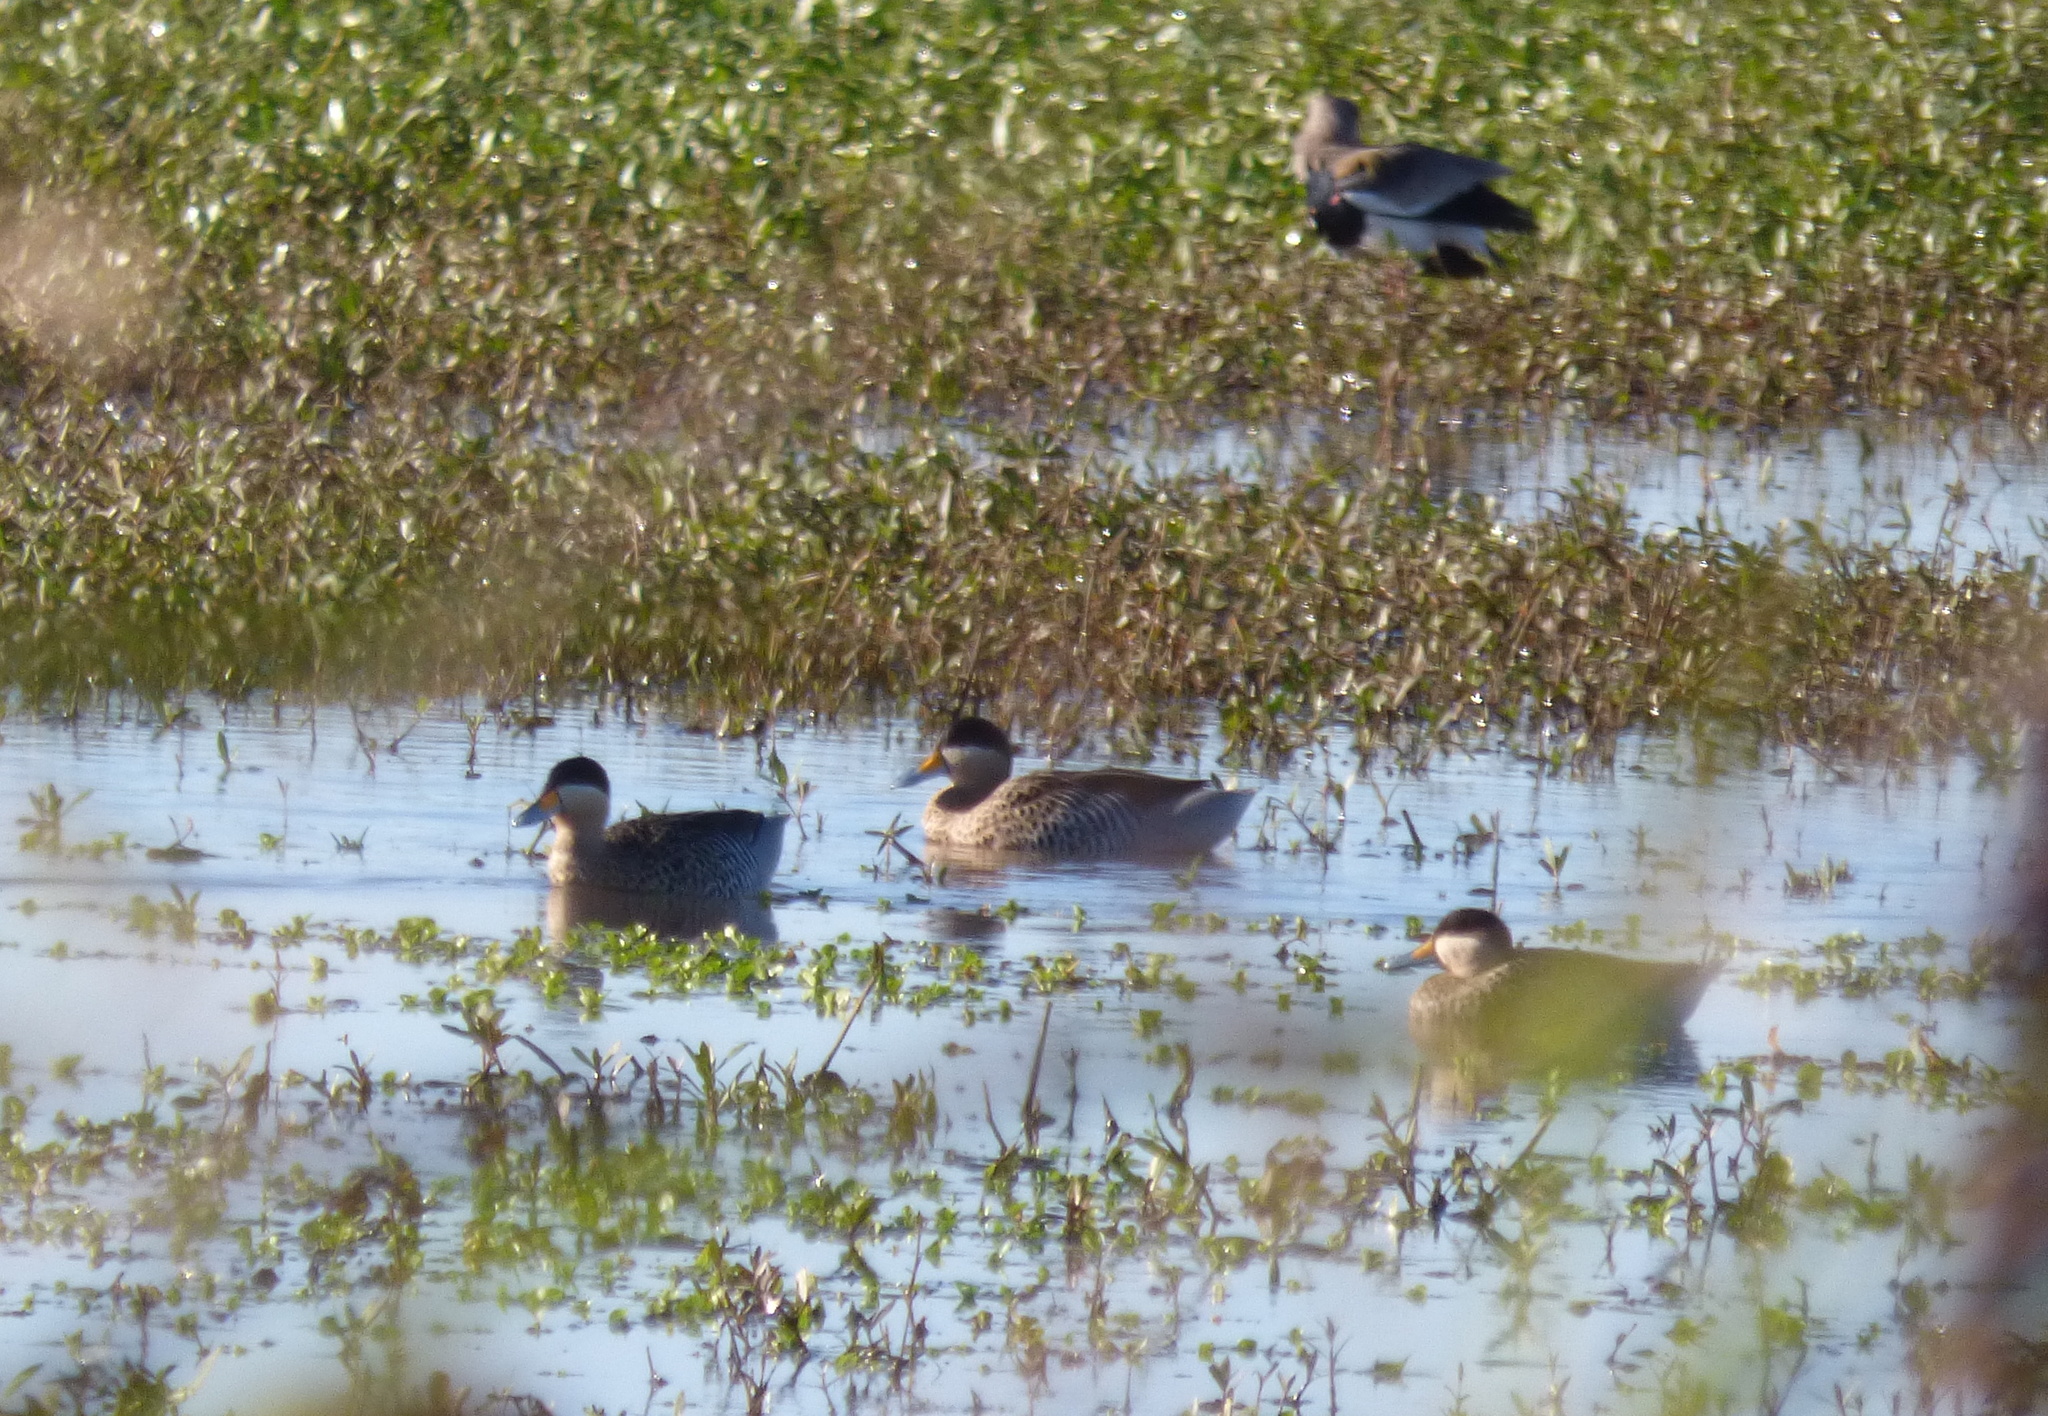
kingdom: Animalia
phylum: Chordata
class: Aves
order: Anseriformes
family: Anatidae
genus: Spatula
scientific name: Spatula versicolor
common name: Silver teal
